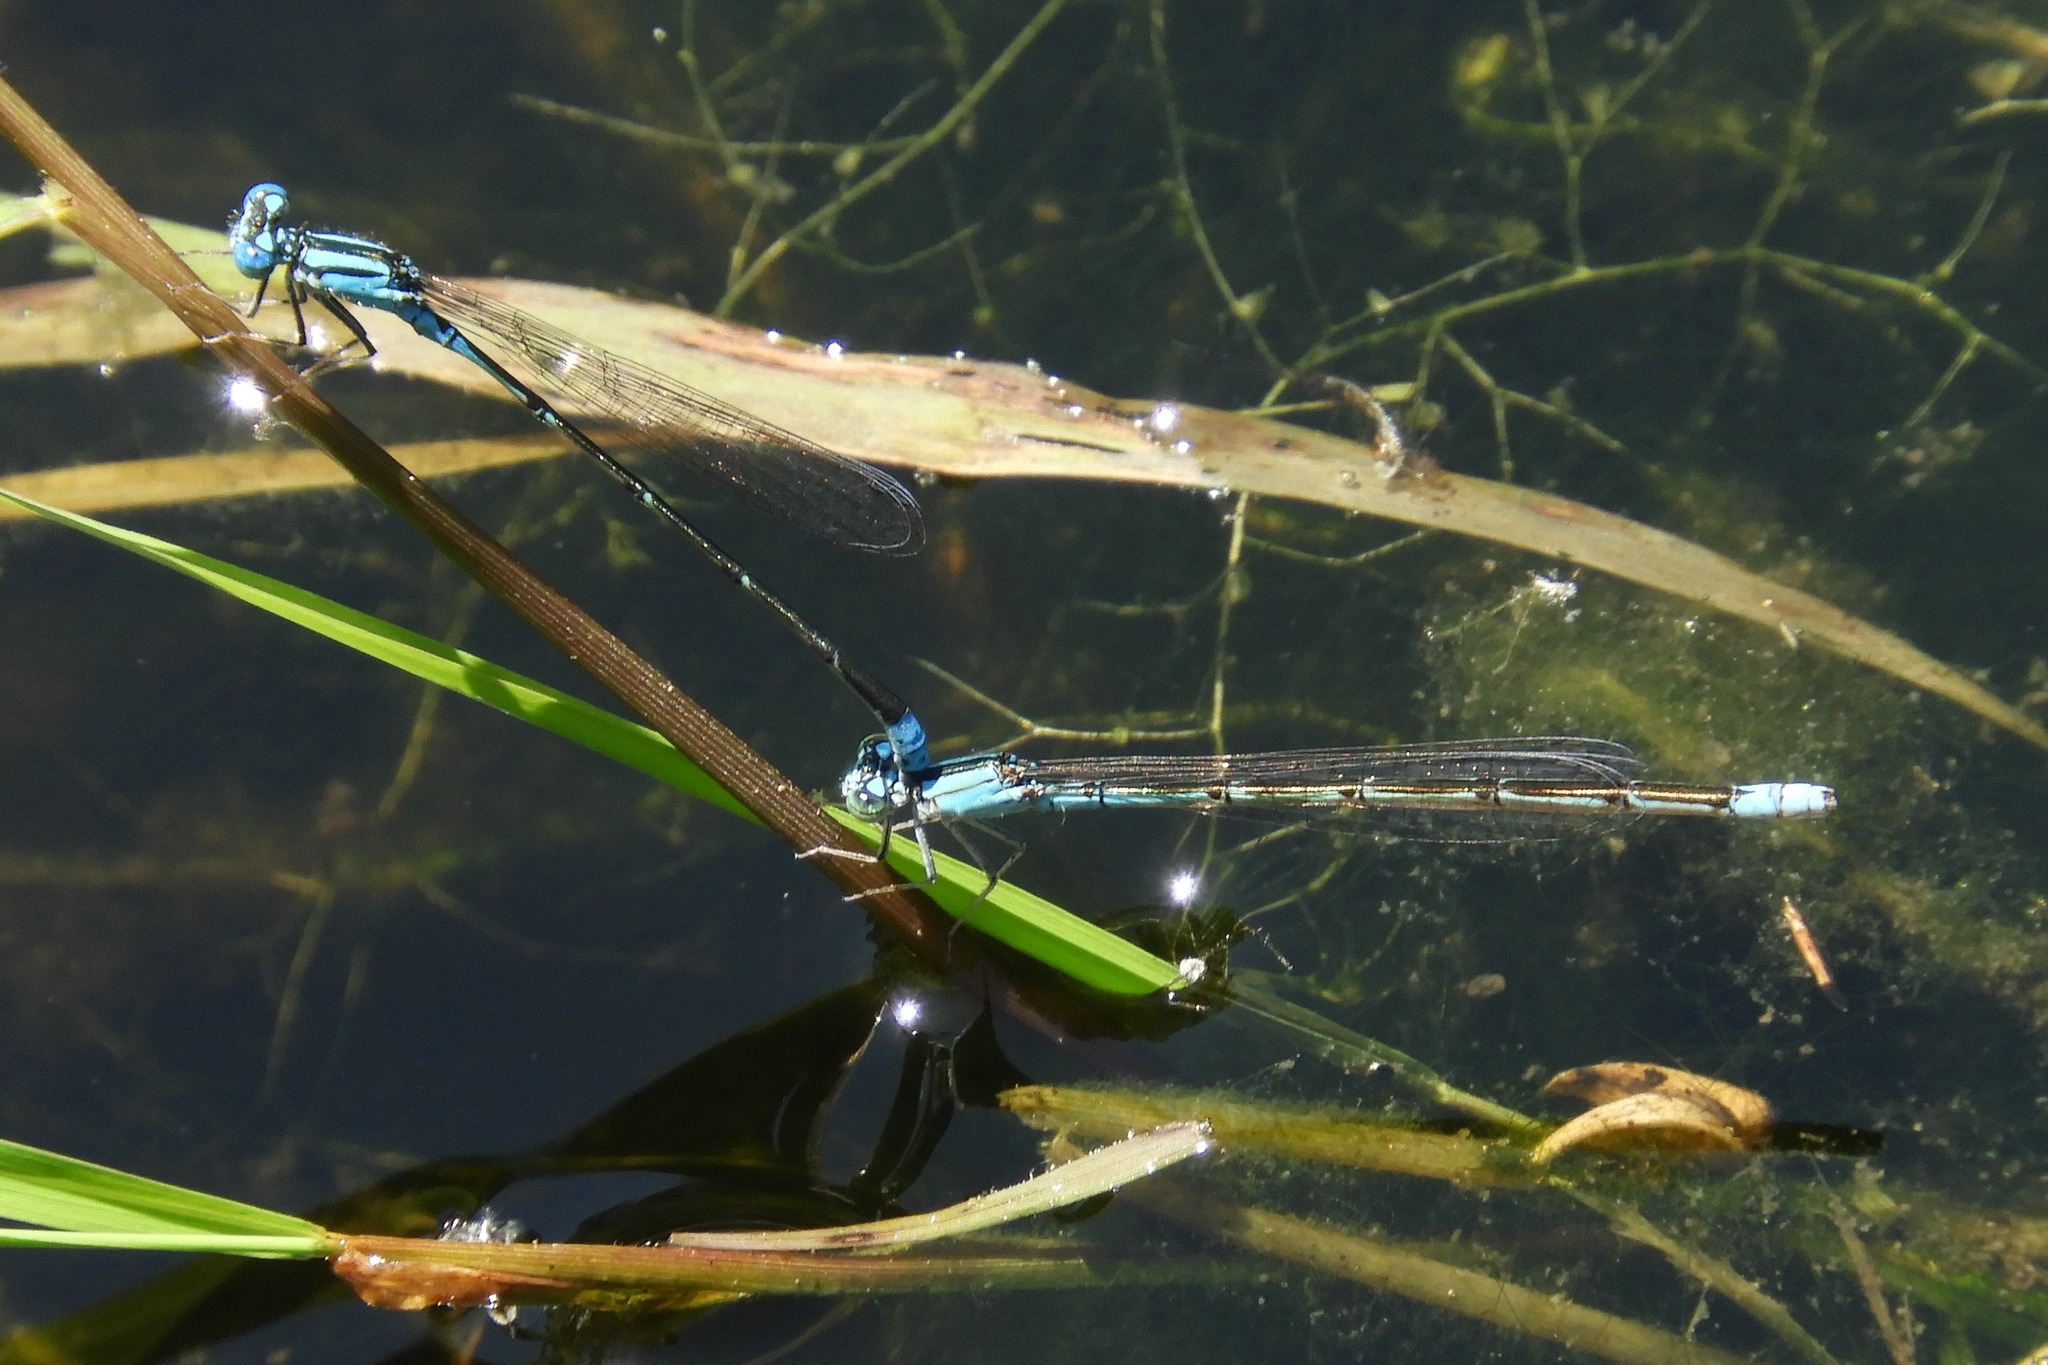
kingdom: Animalia
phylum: Arthropoda
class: Insecta
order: Odonata
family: Coenagrionidae
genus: Enallagma
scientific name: Enallagma traviatum
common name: Slender bluet
